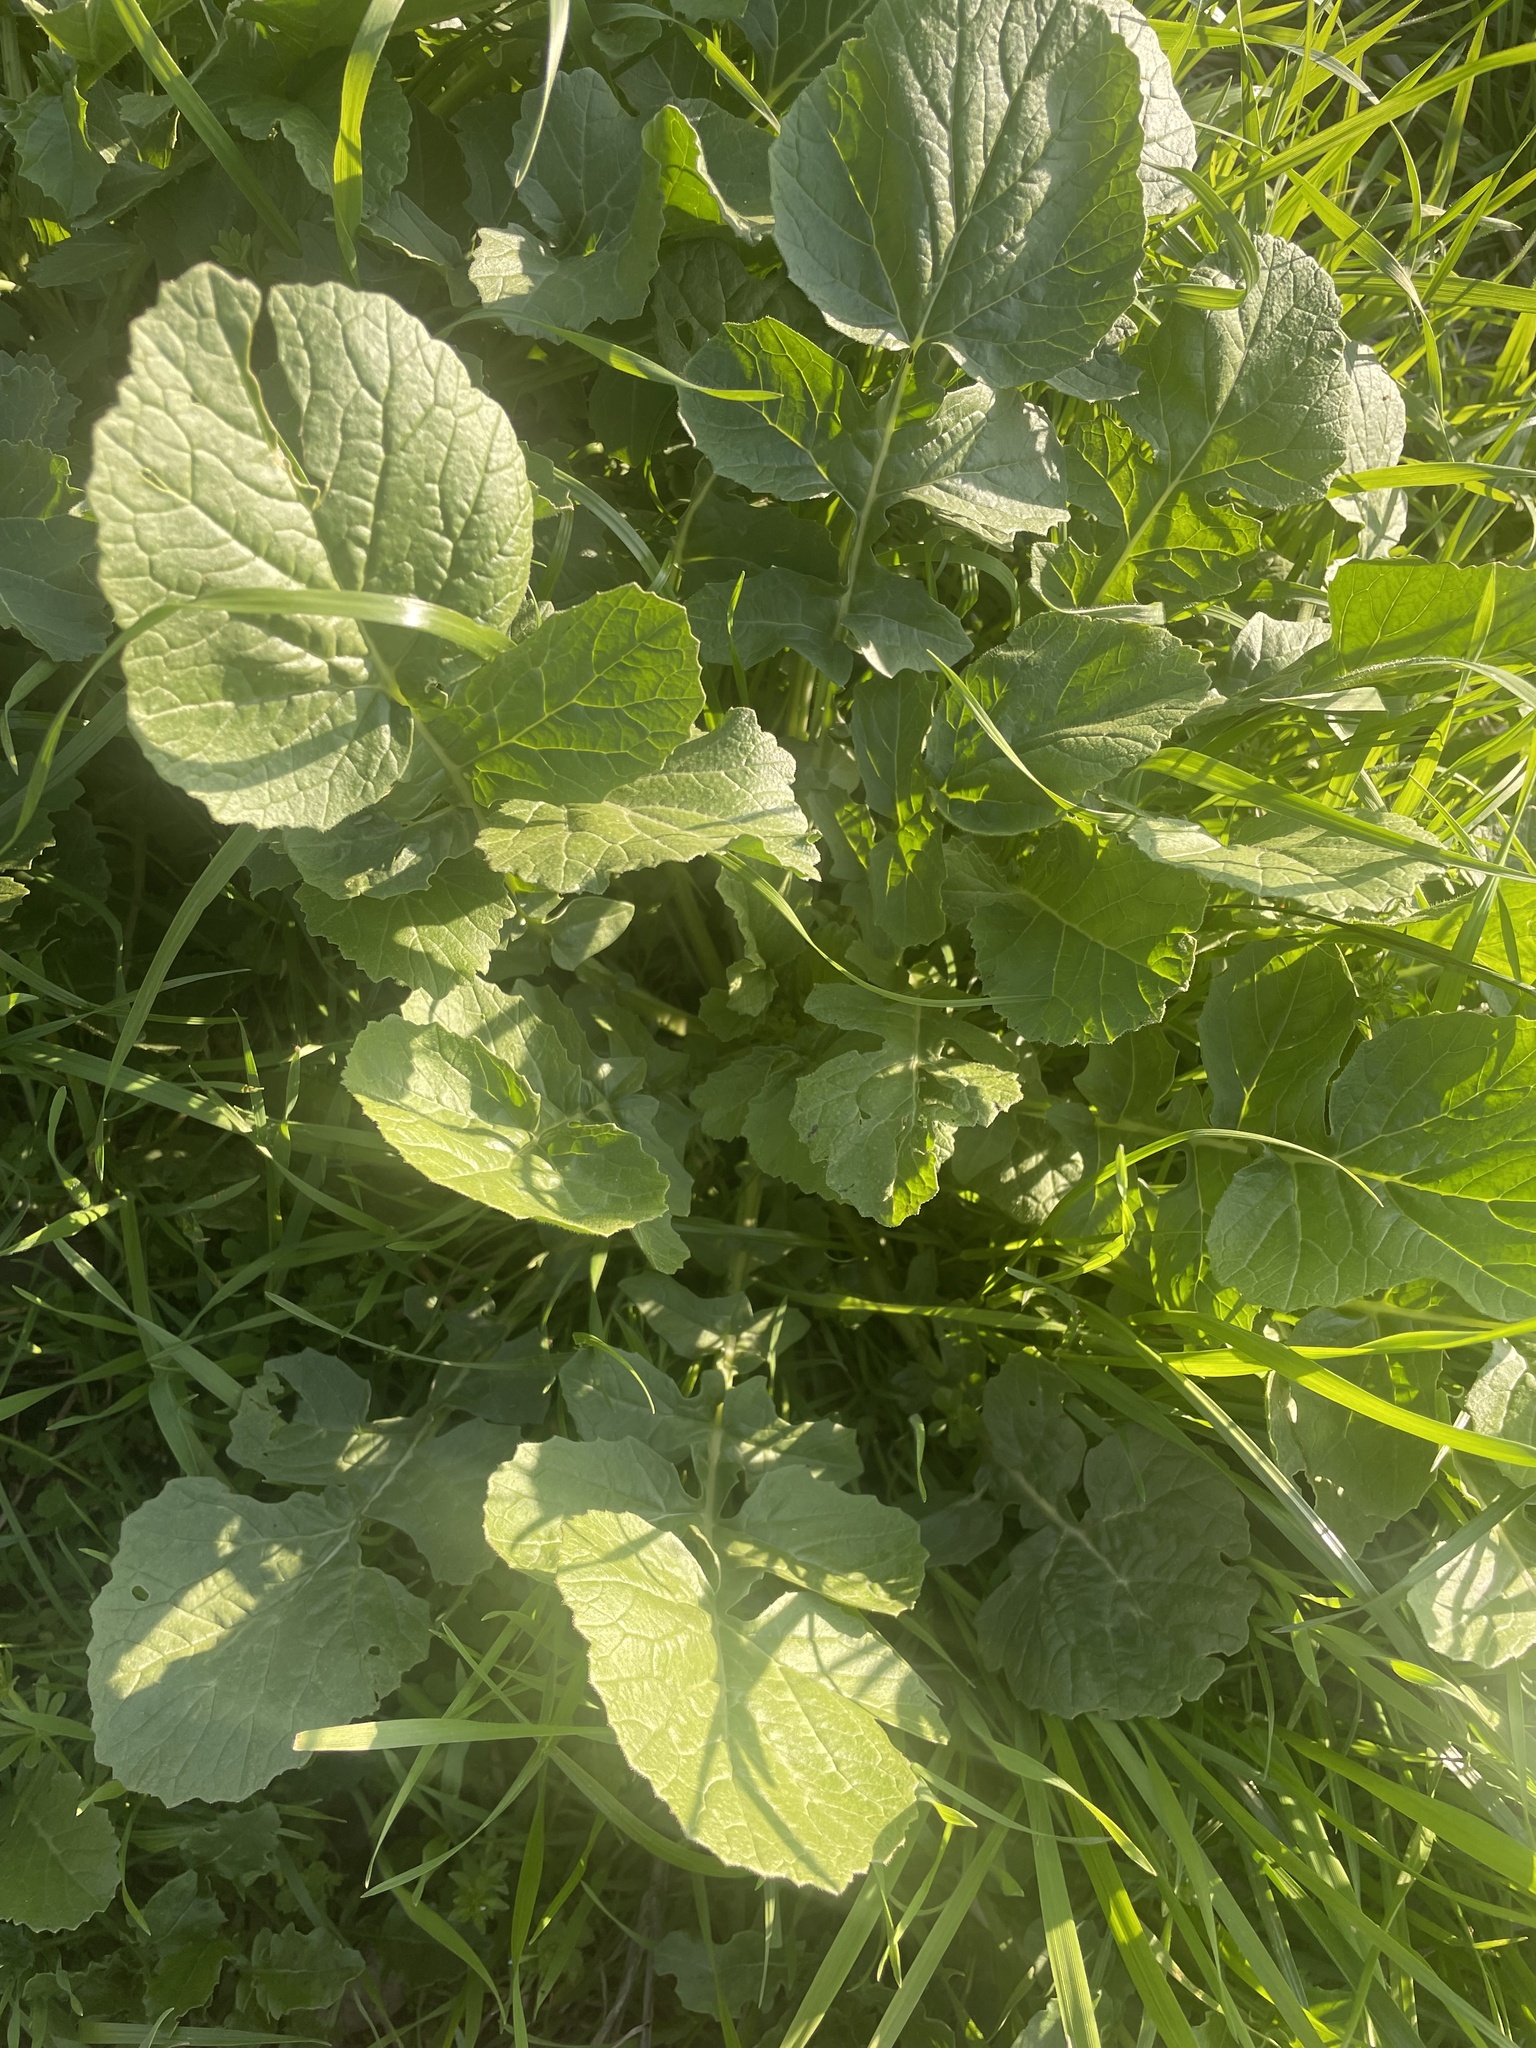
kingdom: Plantae
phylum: Tracheophyta
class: Magnoliopsida
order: Brassicales
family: Brassicaceae
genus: Rapistrum
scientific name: Rapistrum rugosum
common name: Annual bastardcabbage
